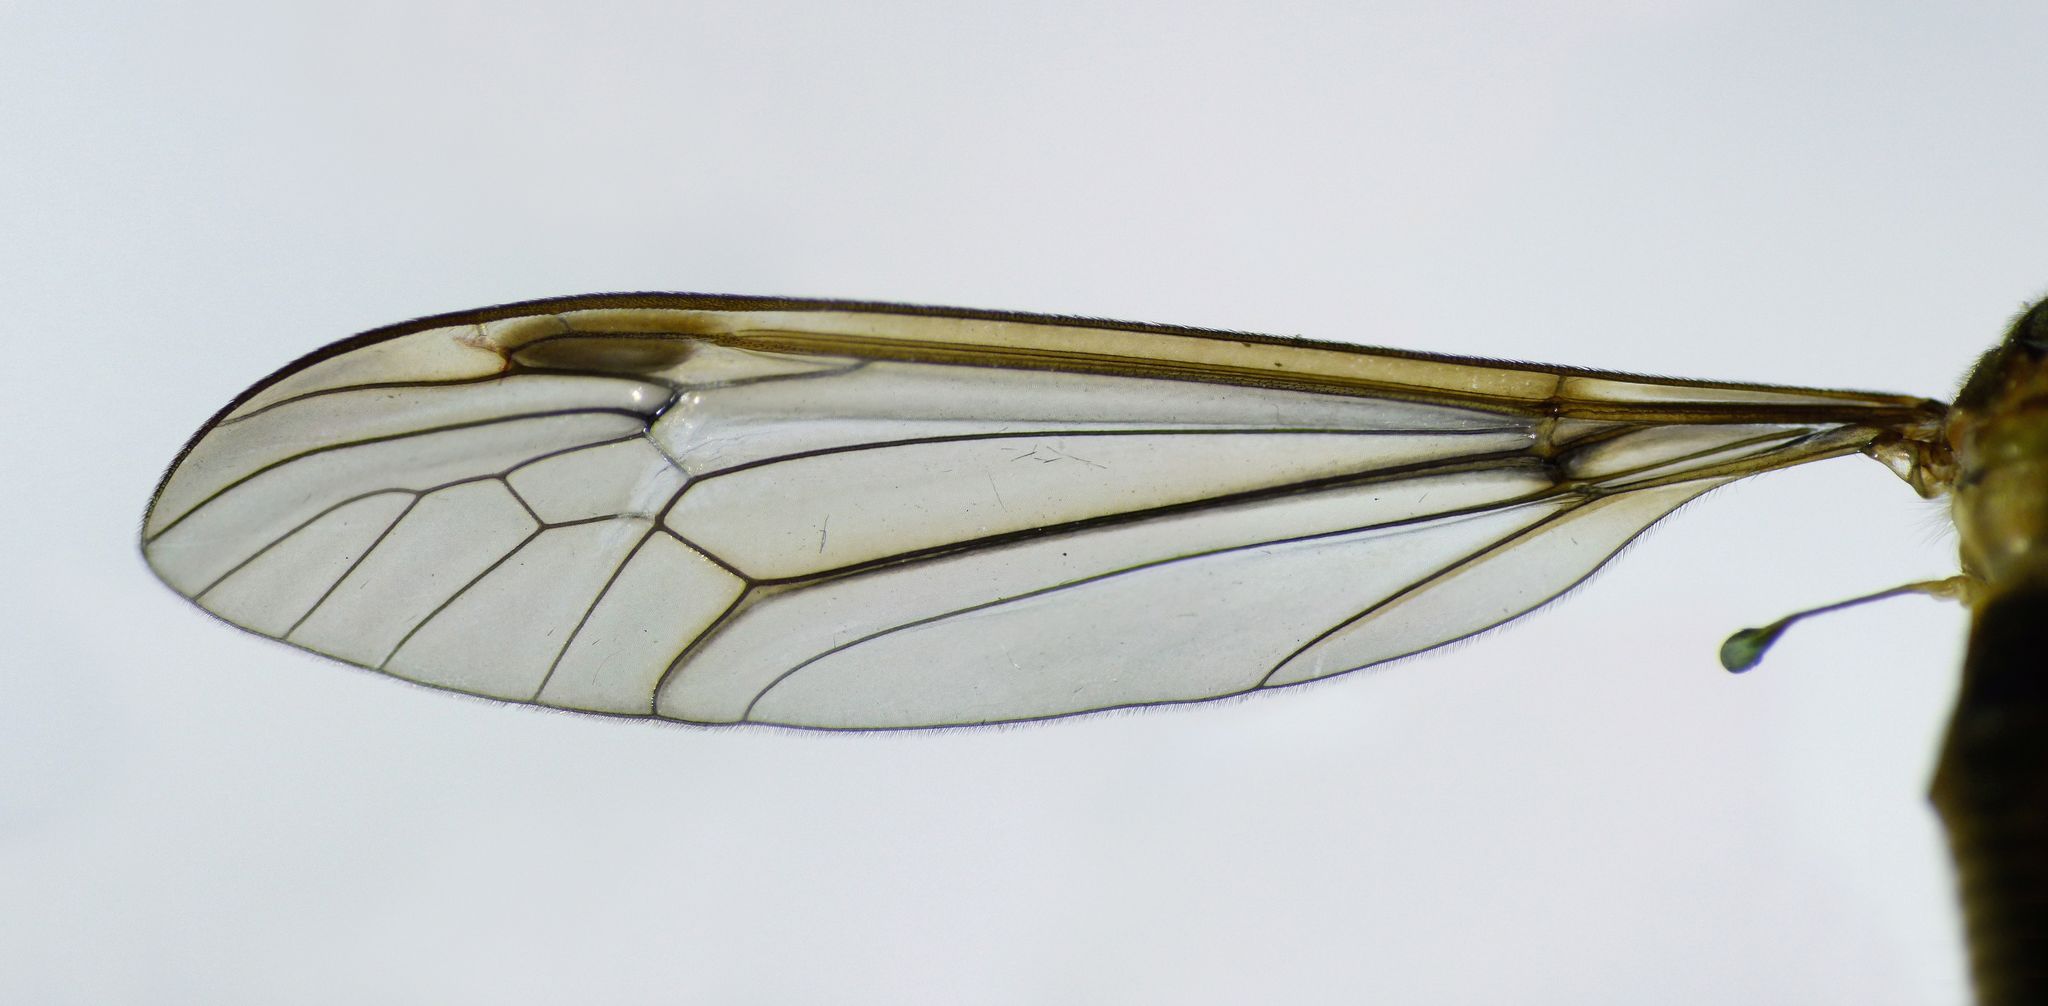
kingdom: Animalia
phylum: Arthropoda
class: Insecta
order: Diptera
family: Tipulidae
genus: Leptotarsus
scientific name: Leptotarsus zeylandiae
